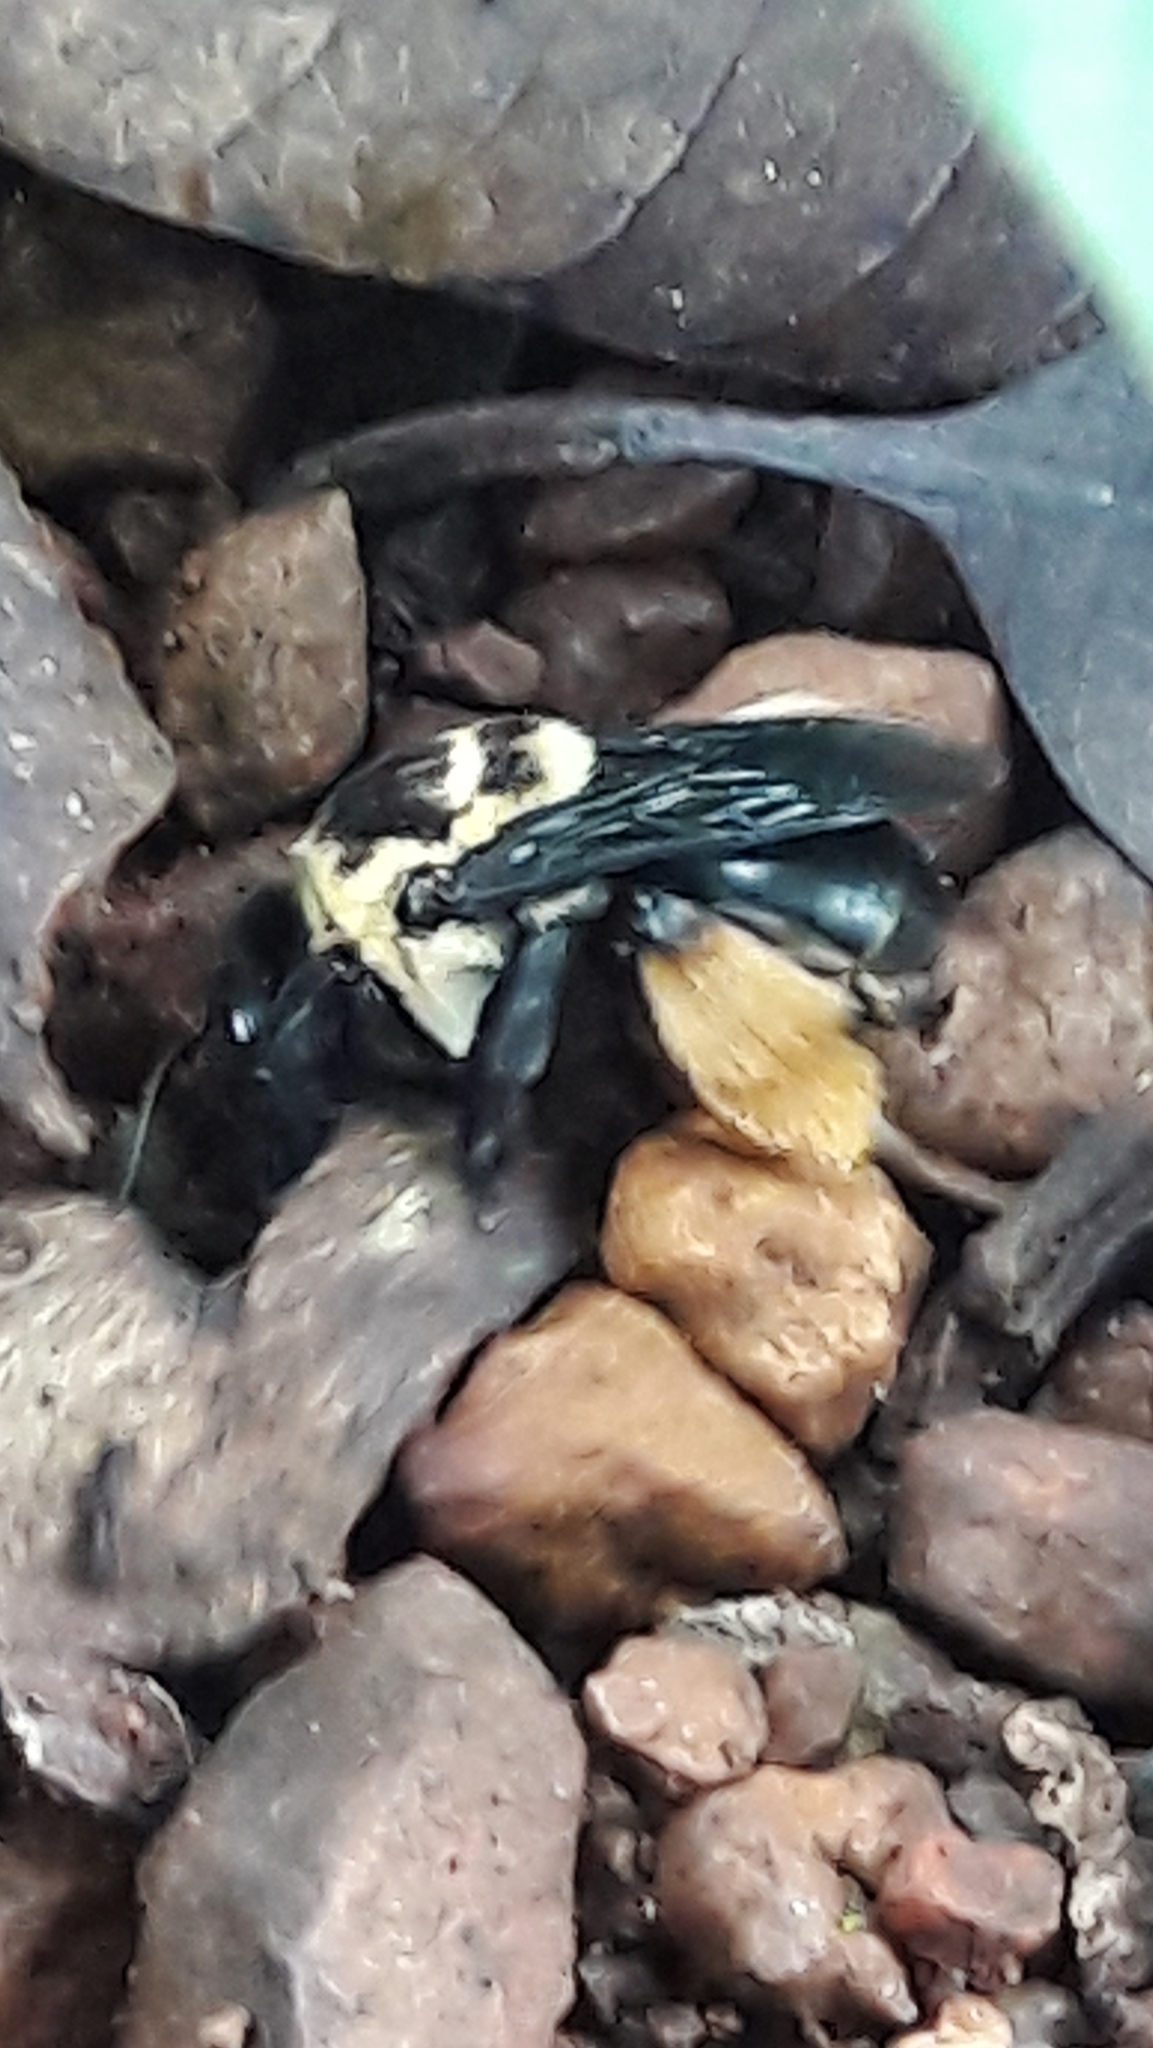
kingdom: Animalia
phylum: Arthropoda
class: Insecta
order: Hymenoptera
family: Apidae
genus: Centris
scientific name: Centris mocsaryi
